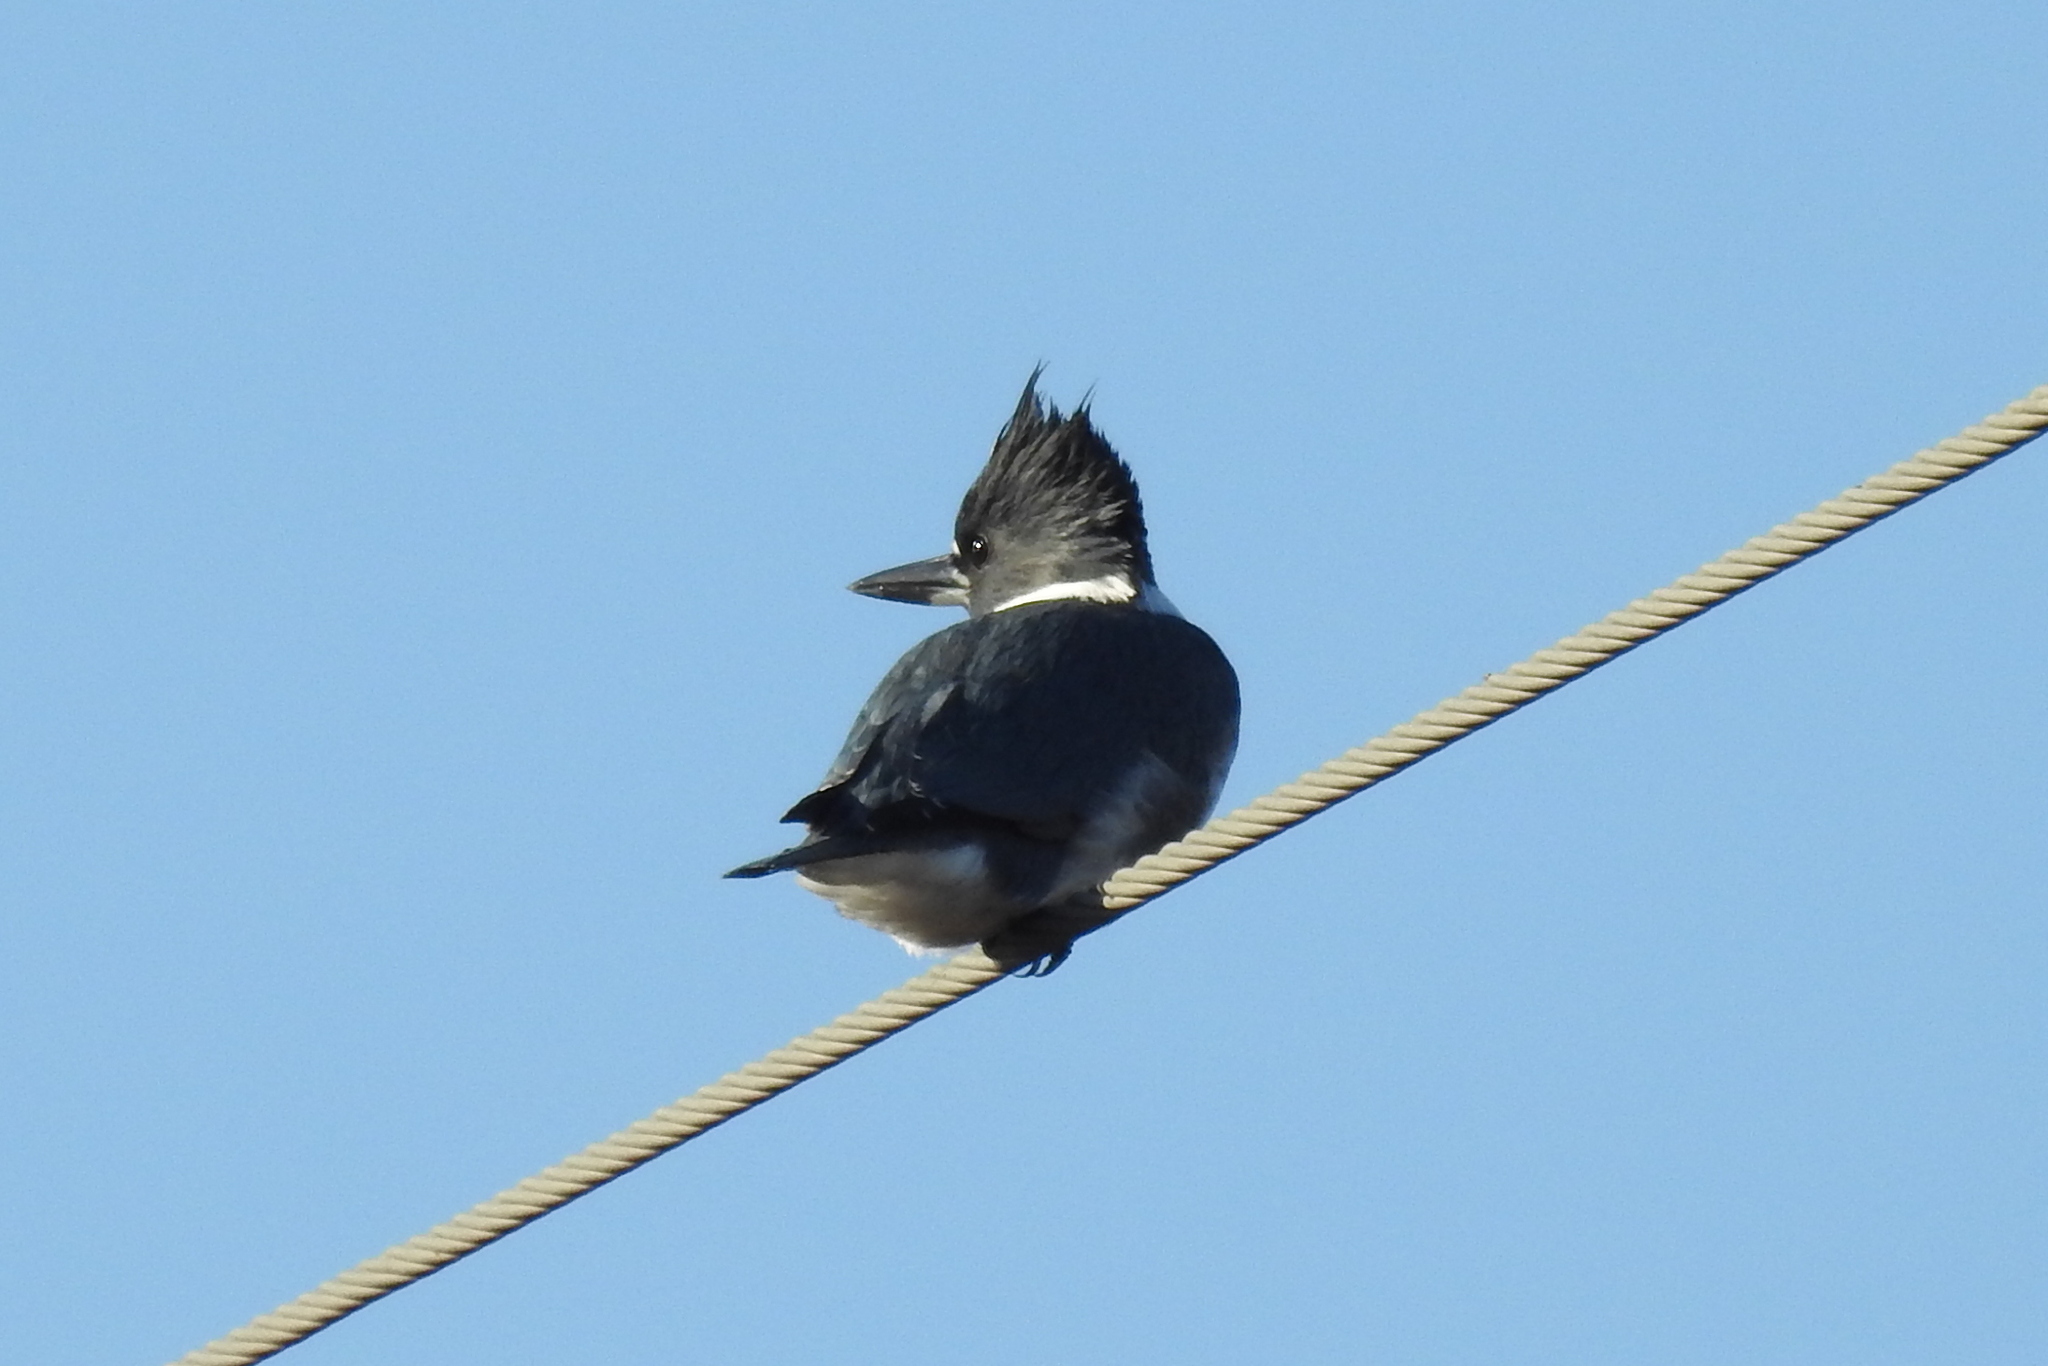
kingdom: Animalia
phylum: Chordata
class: Aves
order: Coraciiformes
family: Alcedinidae
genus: Megaceryle
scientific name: Megaceryle alcyon
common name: Belted kingfisher
